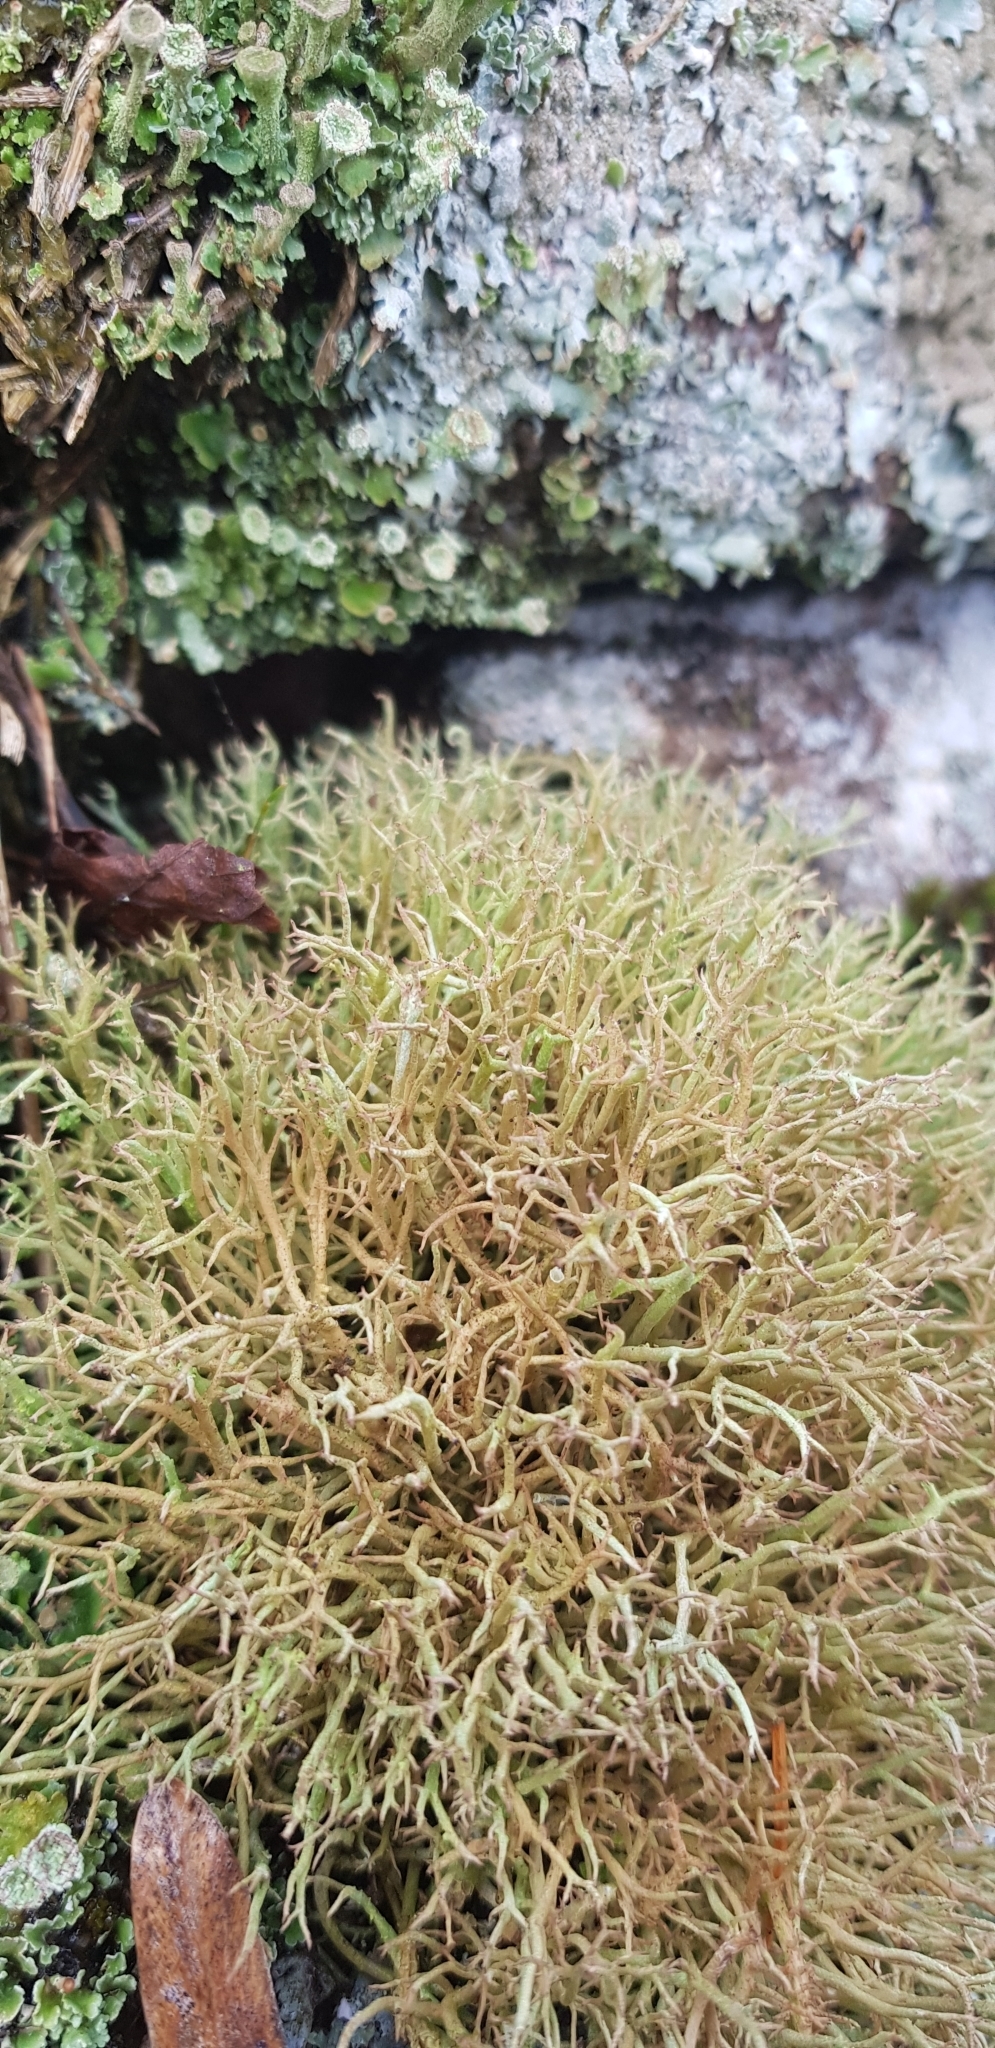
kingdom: Fungi
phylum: Ascomycota
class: Lecanoromycetes
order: Lecanorales
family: Cladoniaceae
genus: Cladonia
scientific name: Cladonia furcata
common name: Many-forked cladonia
